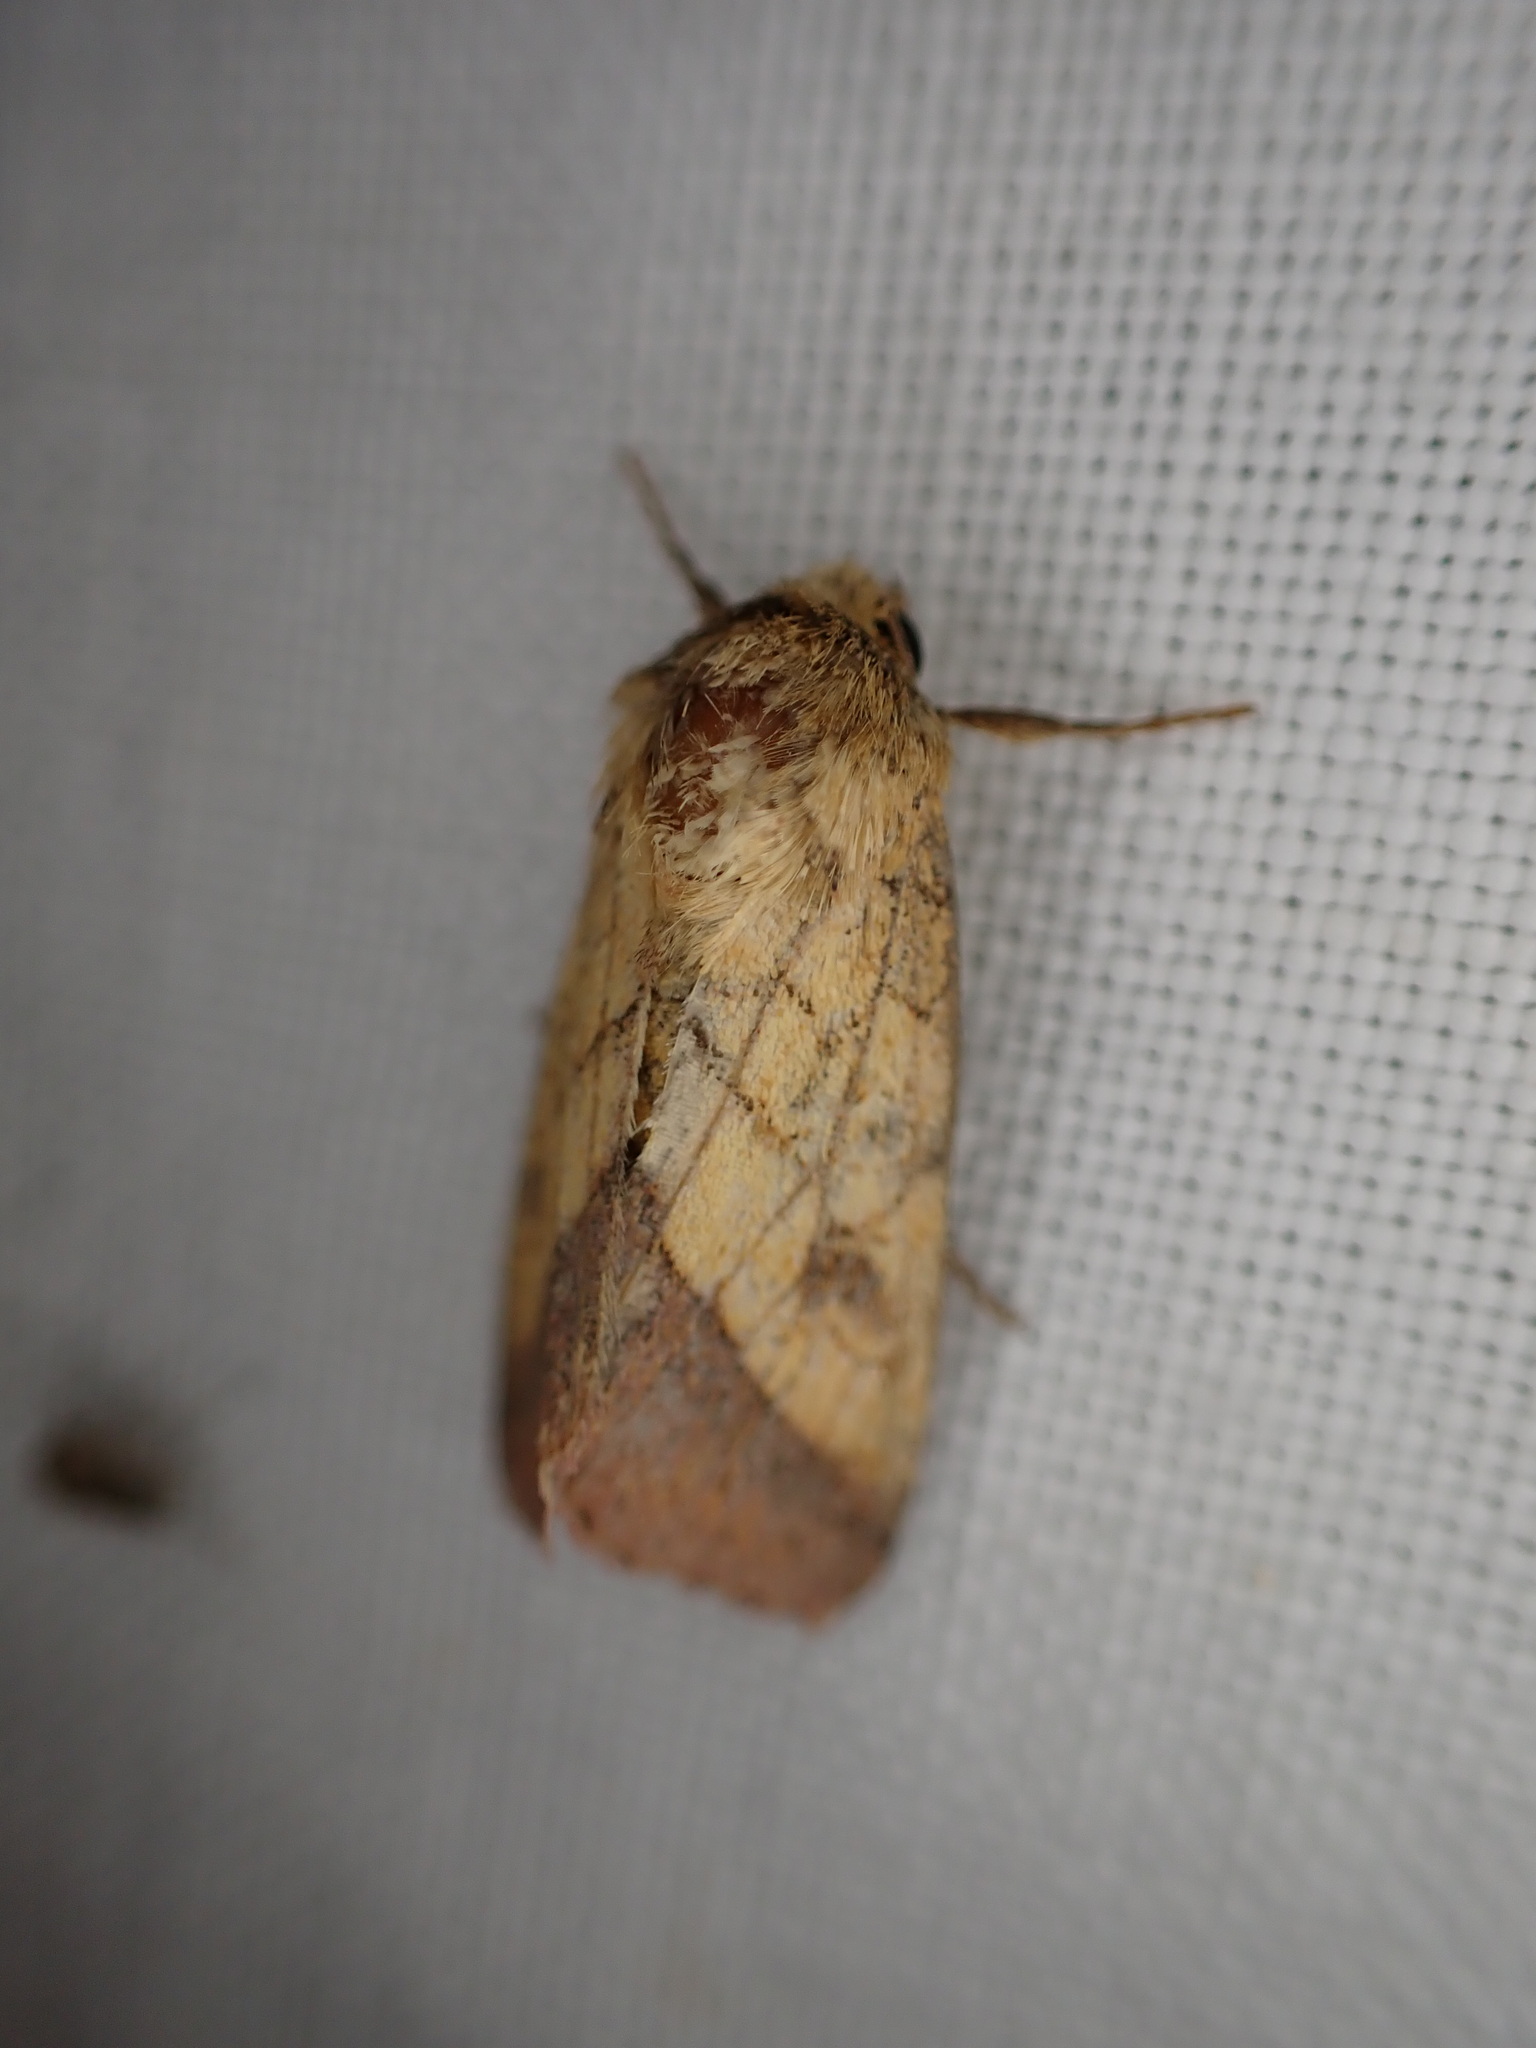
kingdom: Animalia
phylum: Arthropoda
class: Insecta
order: Lepidoptera
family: Noctuidae
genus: Pyrrhia
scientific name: Pyrrhia umbra
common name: Bordered sallow
